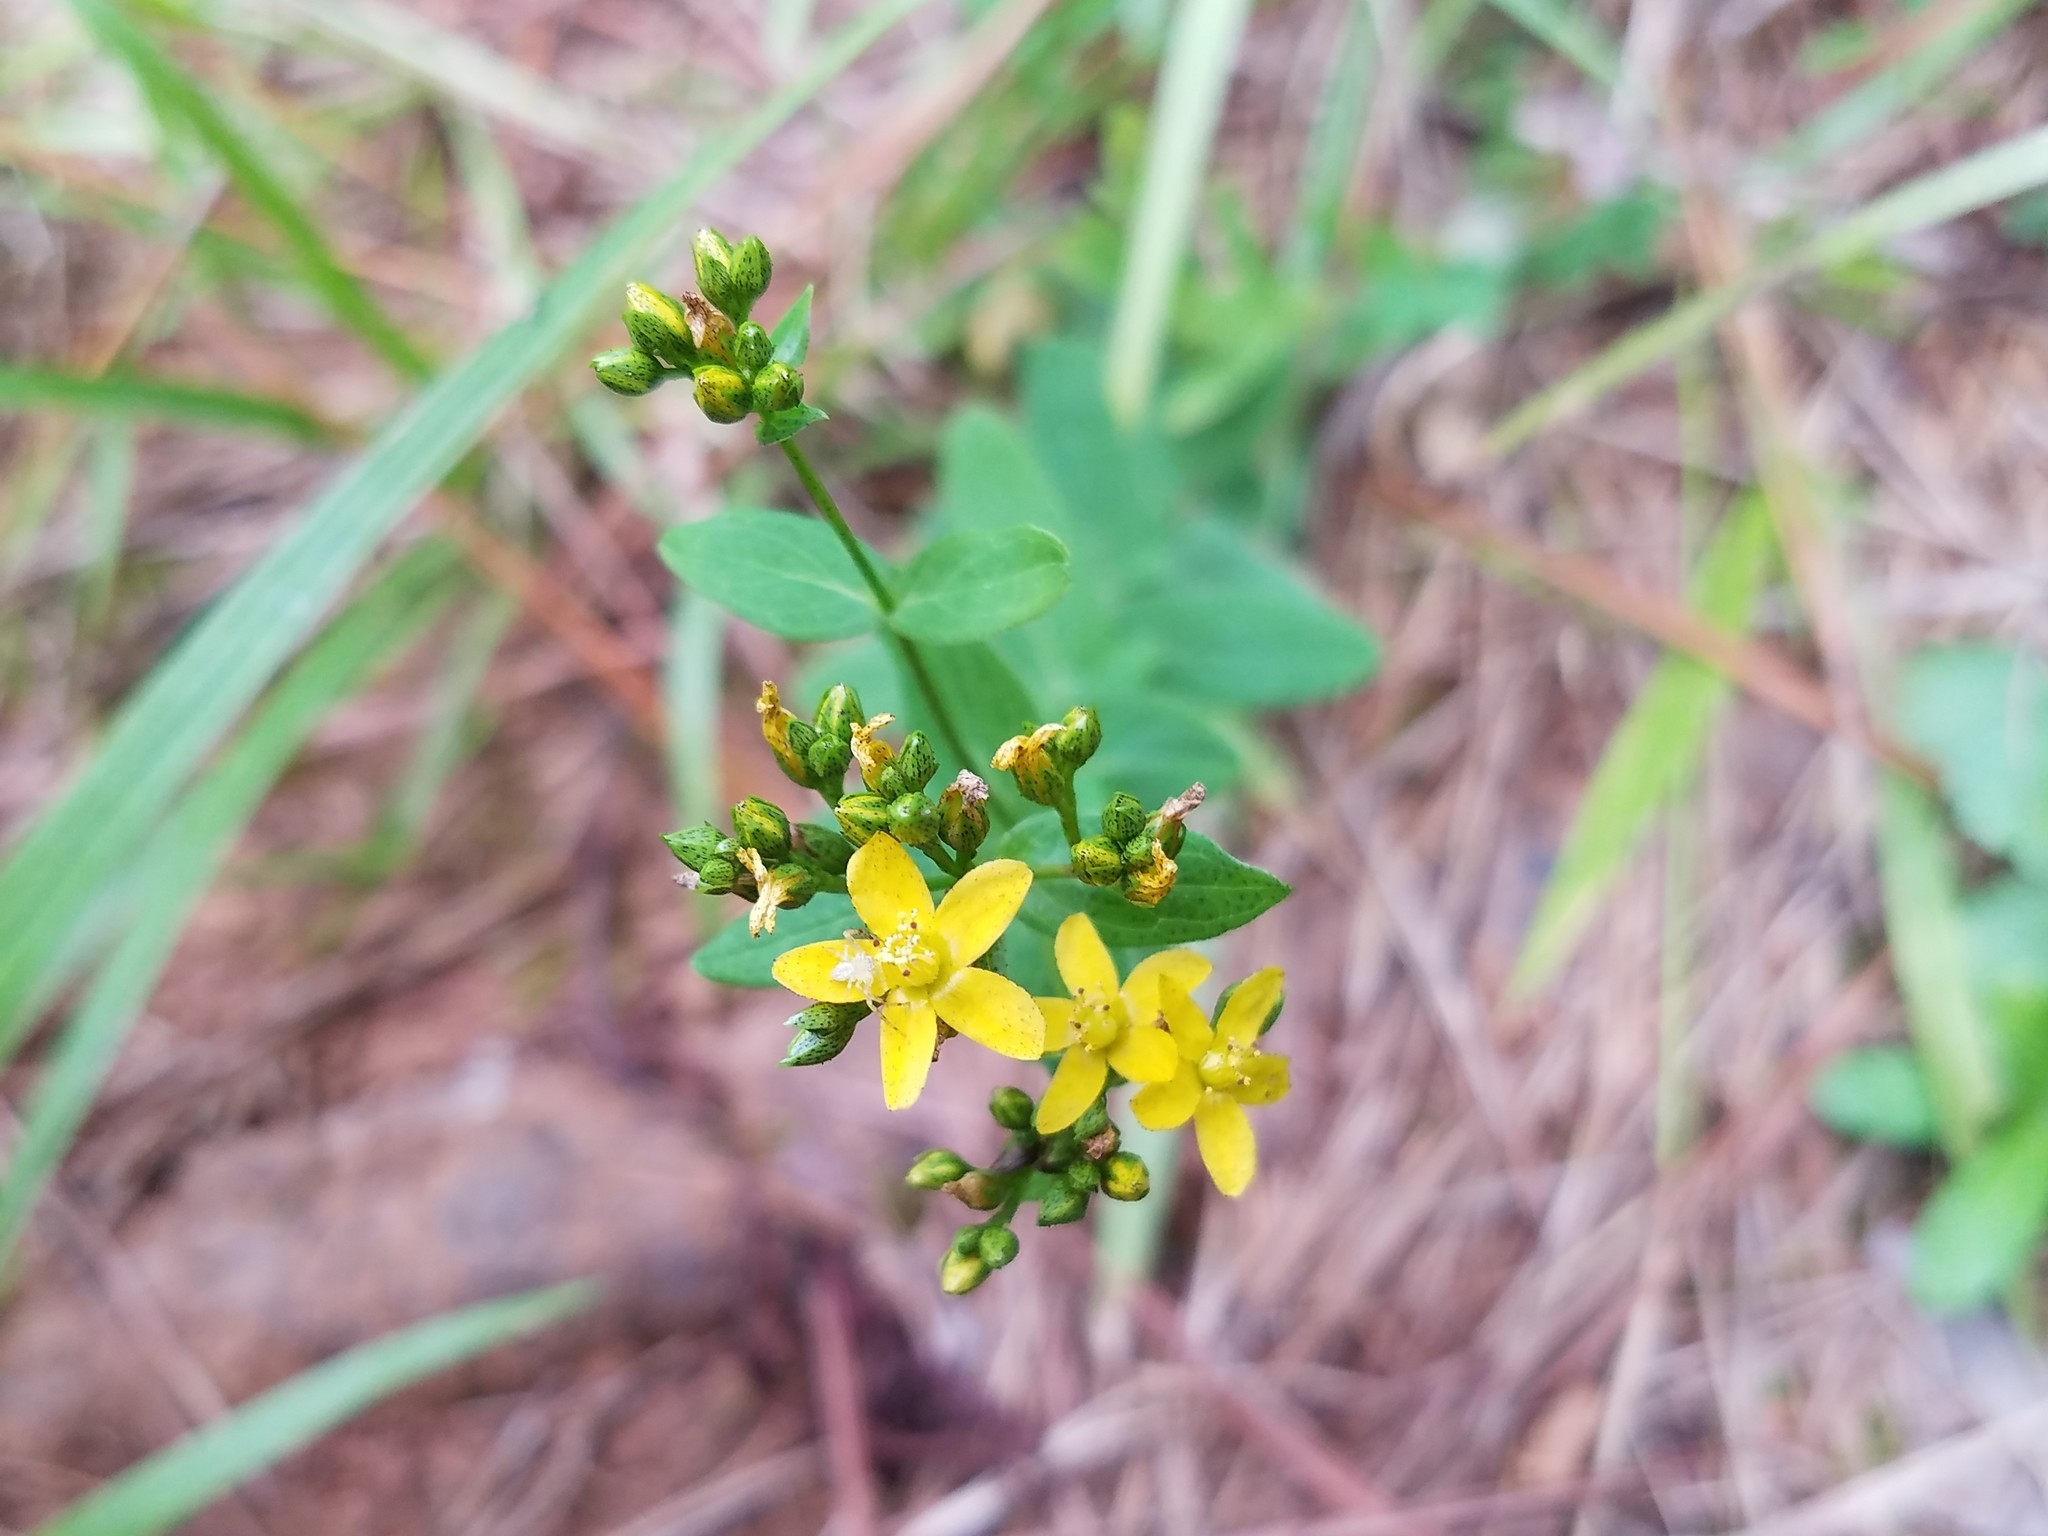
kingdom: Plantae
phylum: Tracheophyta
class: Magnoliopsida
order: Malpighiales
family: Hypericaceae
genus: Hypericum
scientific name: Hypericum punctatum
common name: Spotted st. john's-wort
